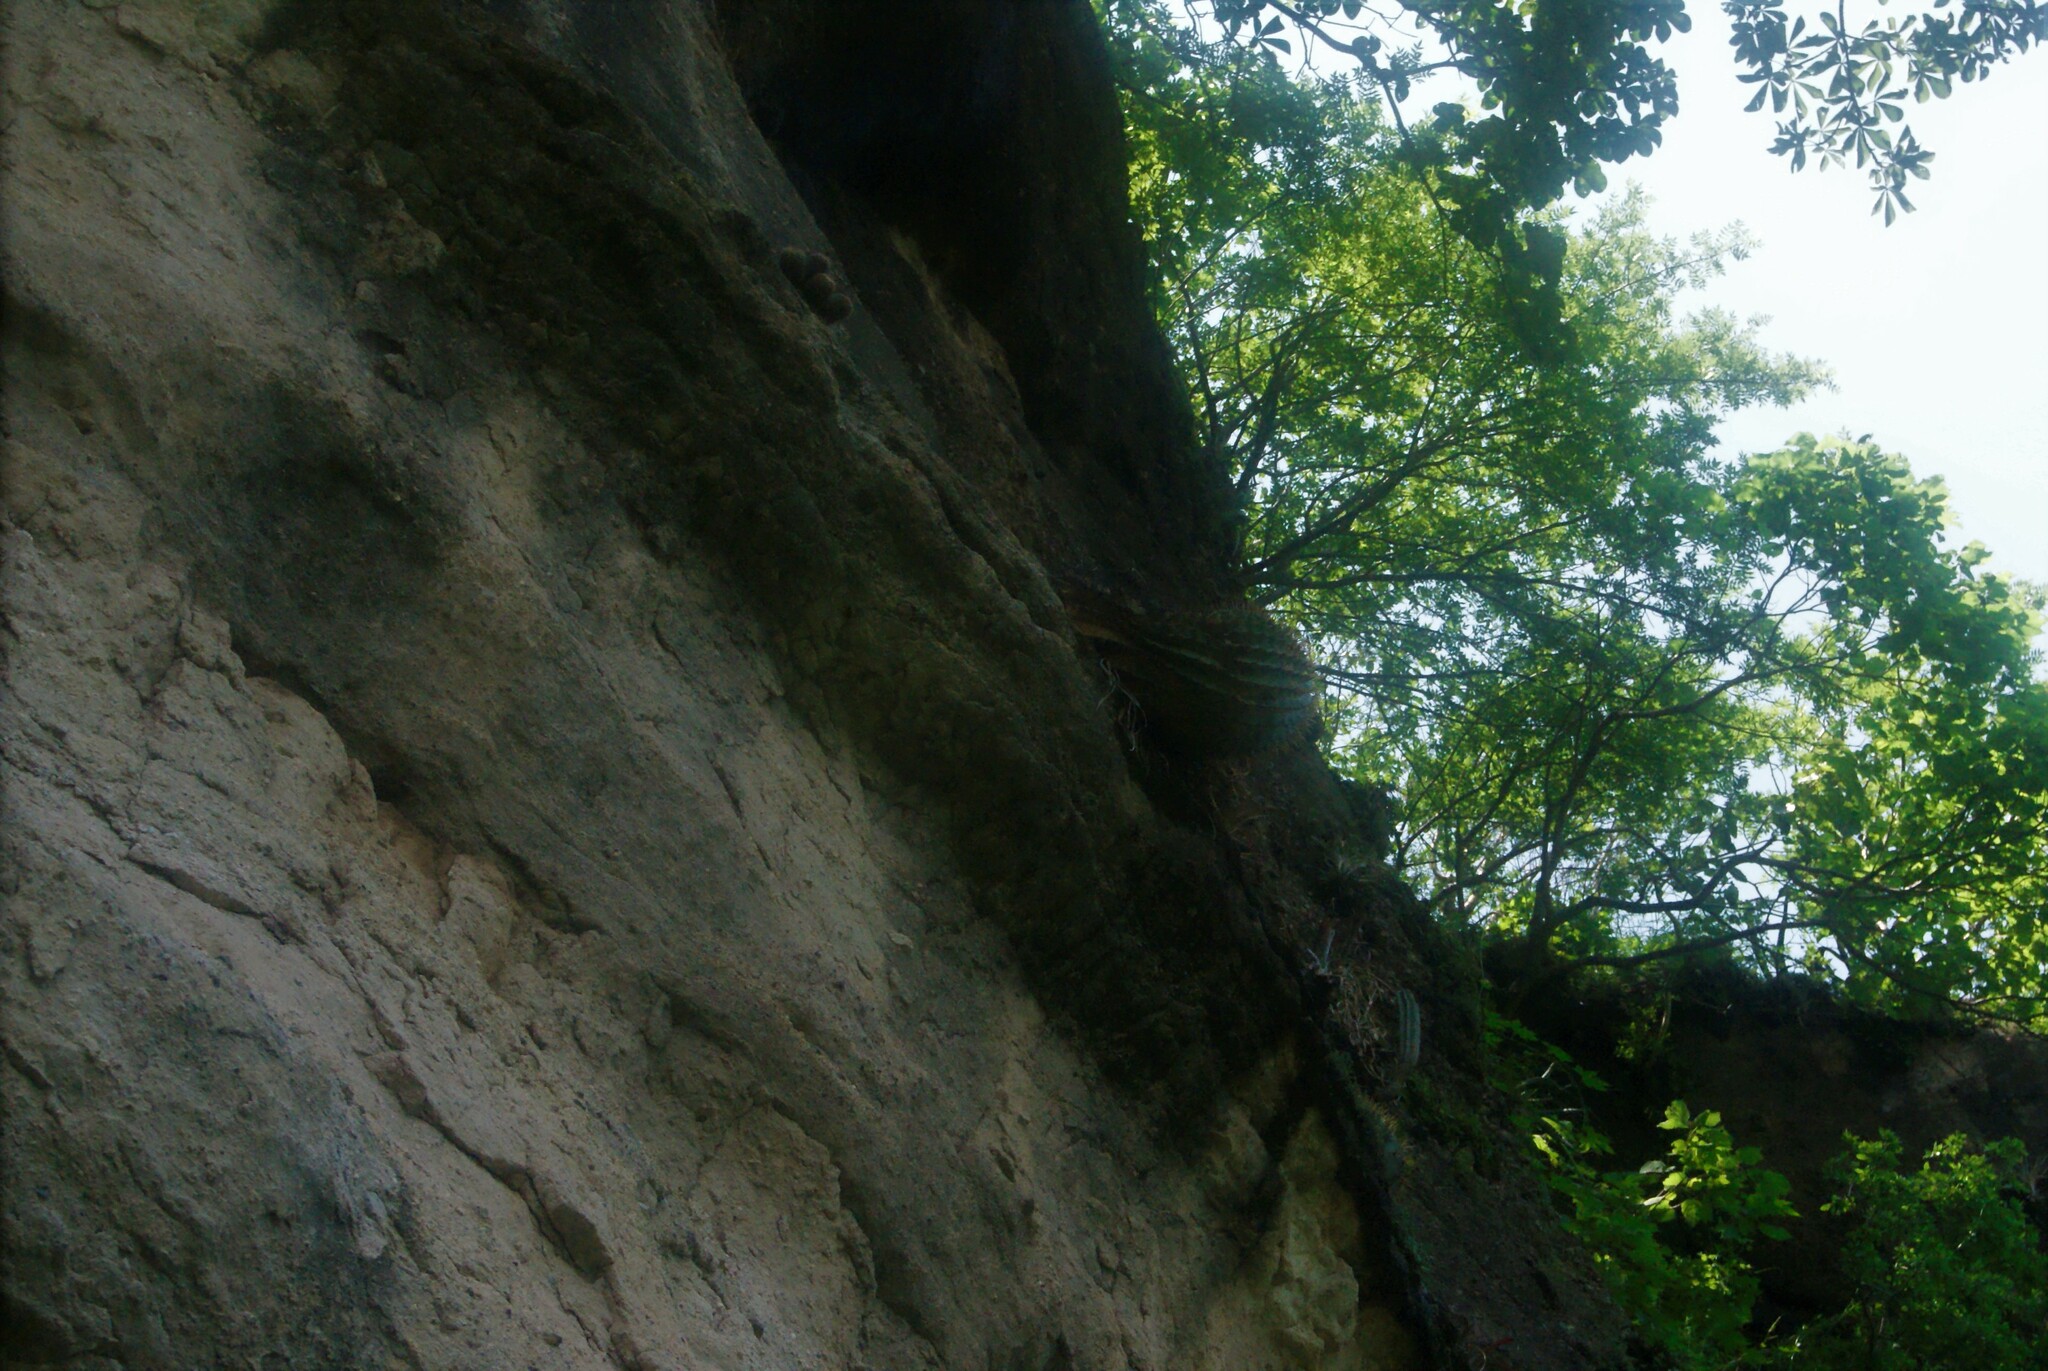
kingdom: Plantae
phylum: Tracheophyta
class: Magnoliopsida
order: Caryophyllales
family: Cactaceae
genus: Bisnaga
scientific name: Bisnaga histrix
